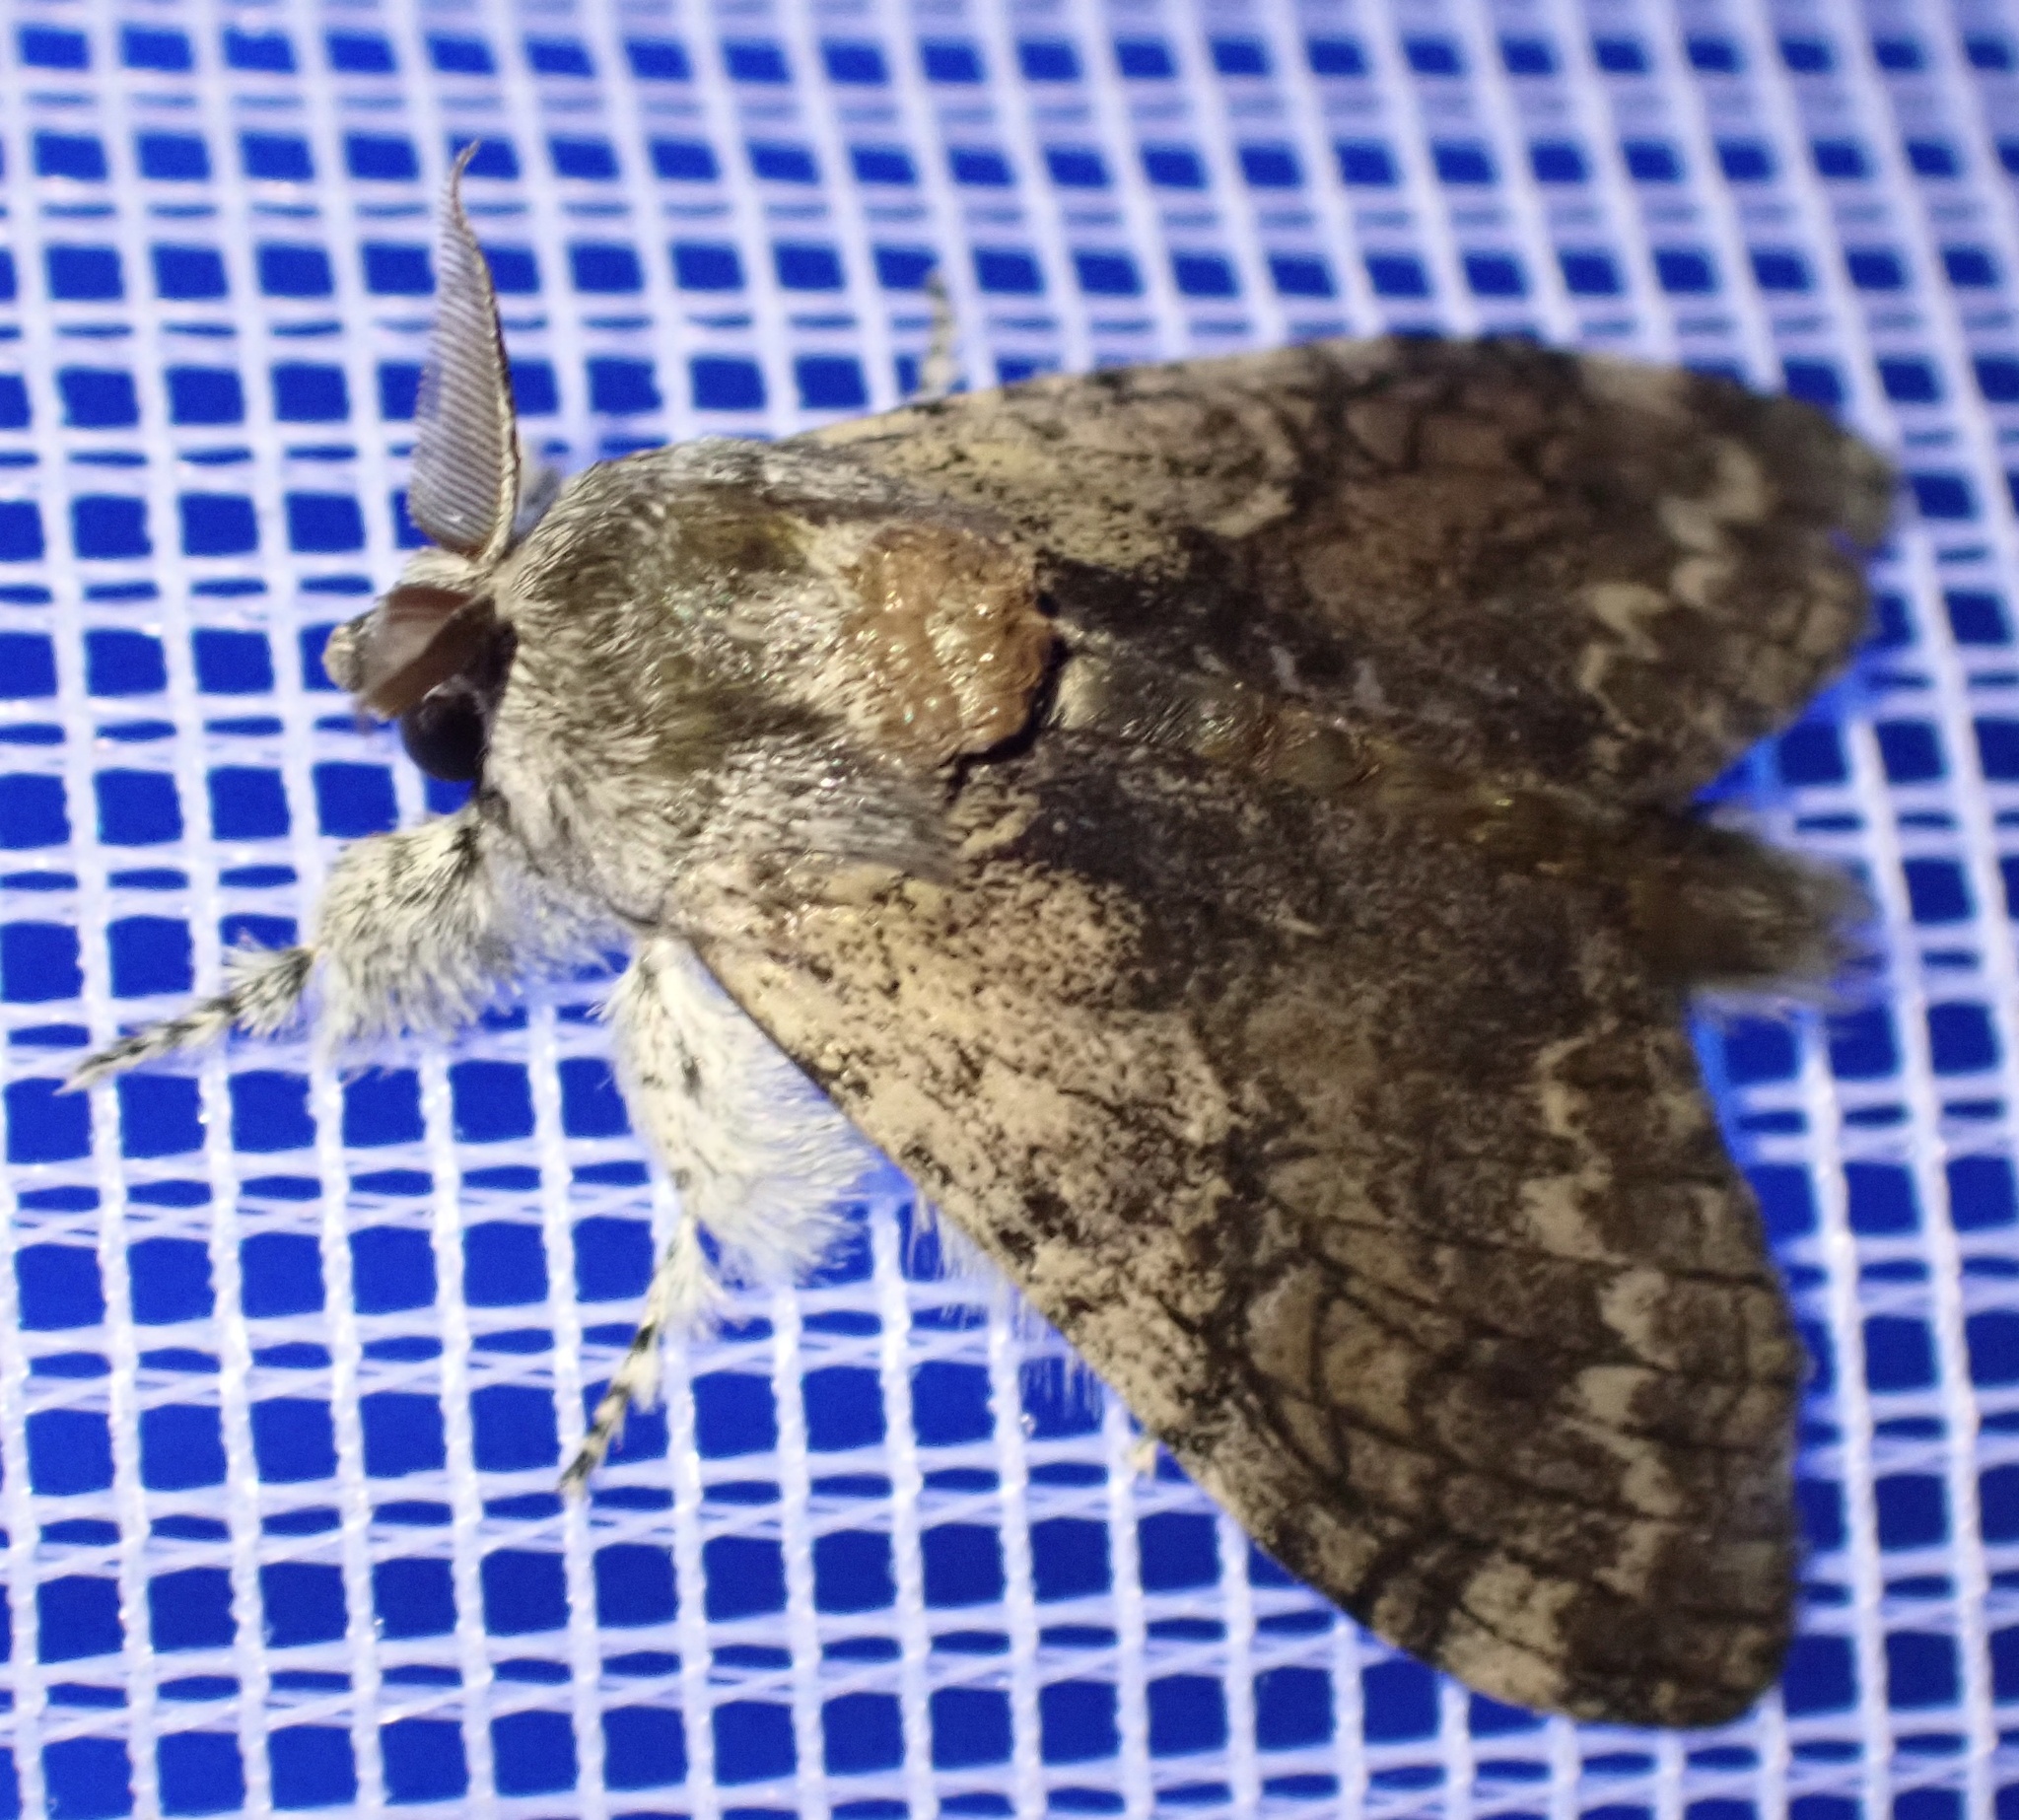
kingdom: Animalia
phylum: Arthropoda
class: Insecta
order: Lepidoptera
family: Erebidae
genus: Calliteara
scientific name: Calliteara
